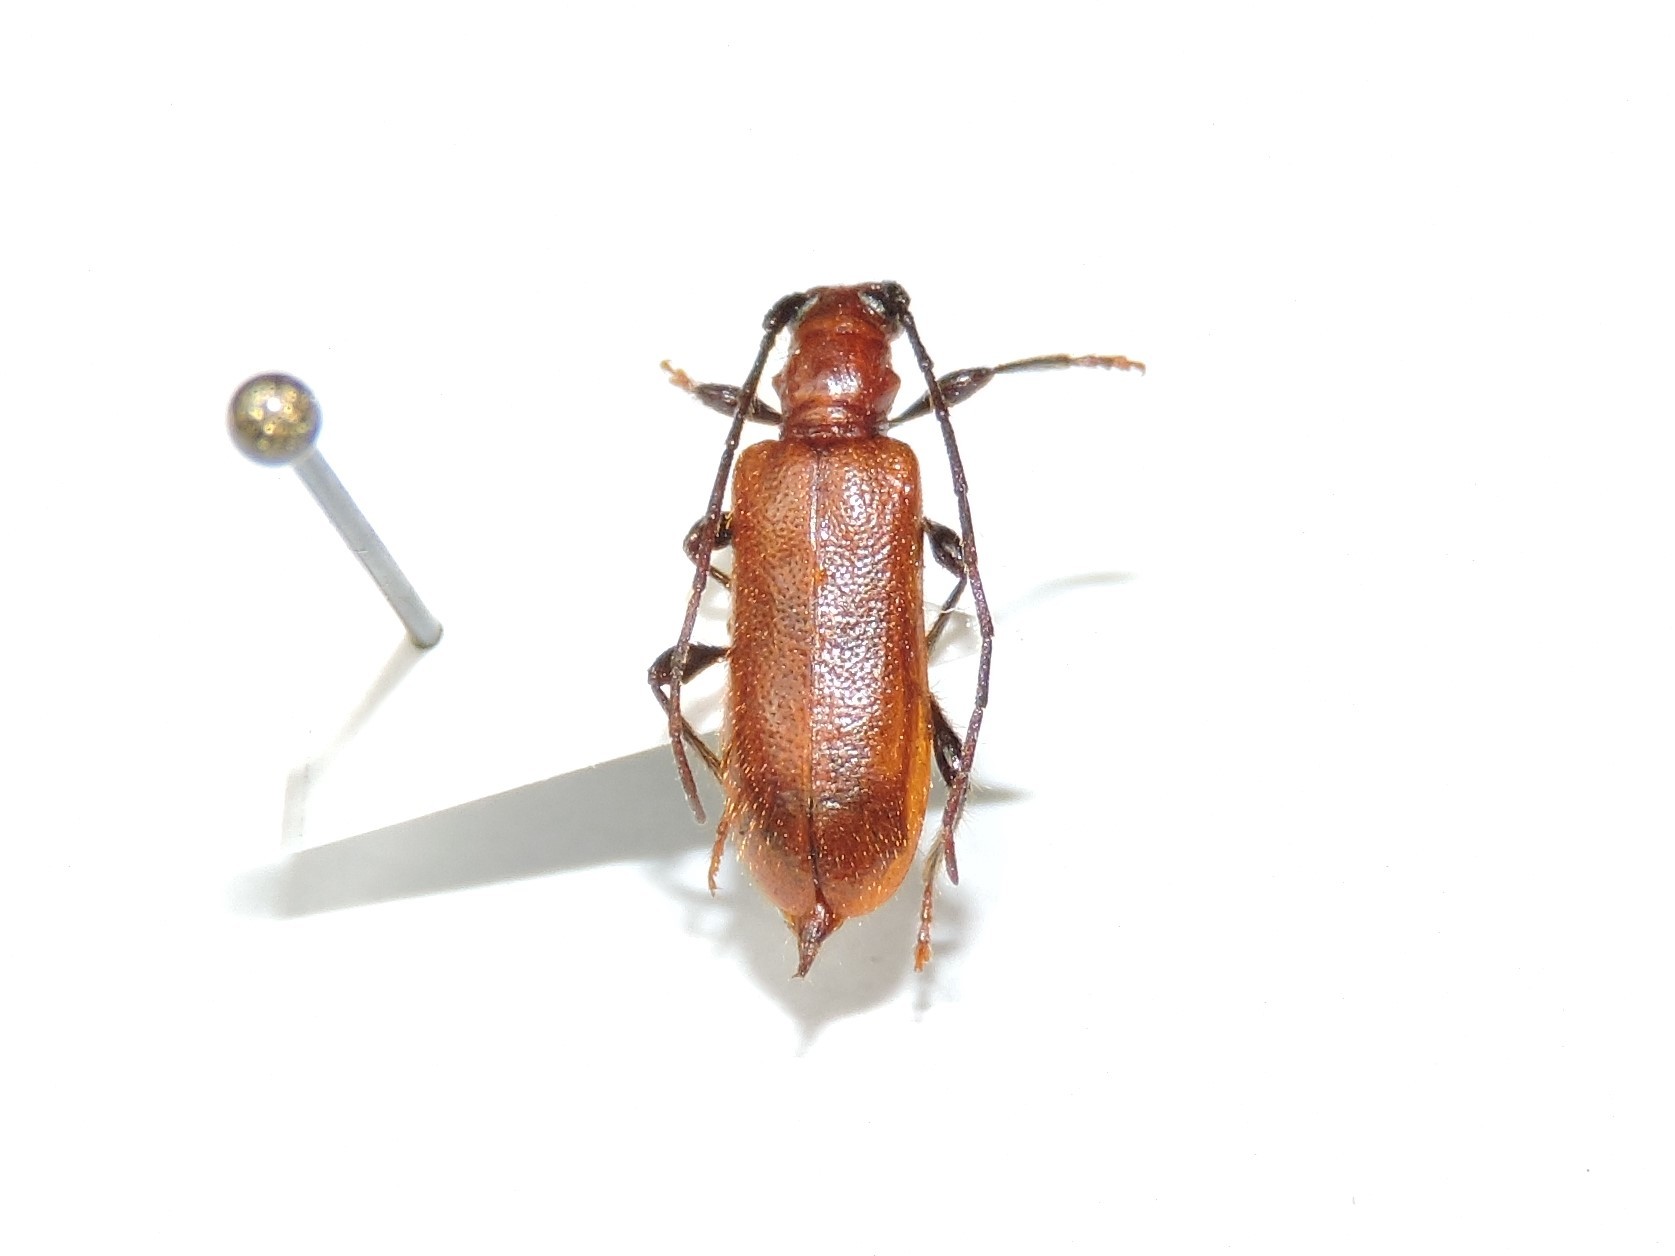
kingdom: Animalia
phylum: Arthropoda
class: Insecta
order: Coleoptera
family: Cerambycidae
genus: Obrium
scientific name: Obrium cantharinum
